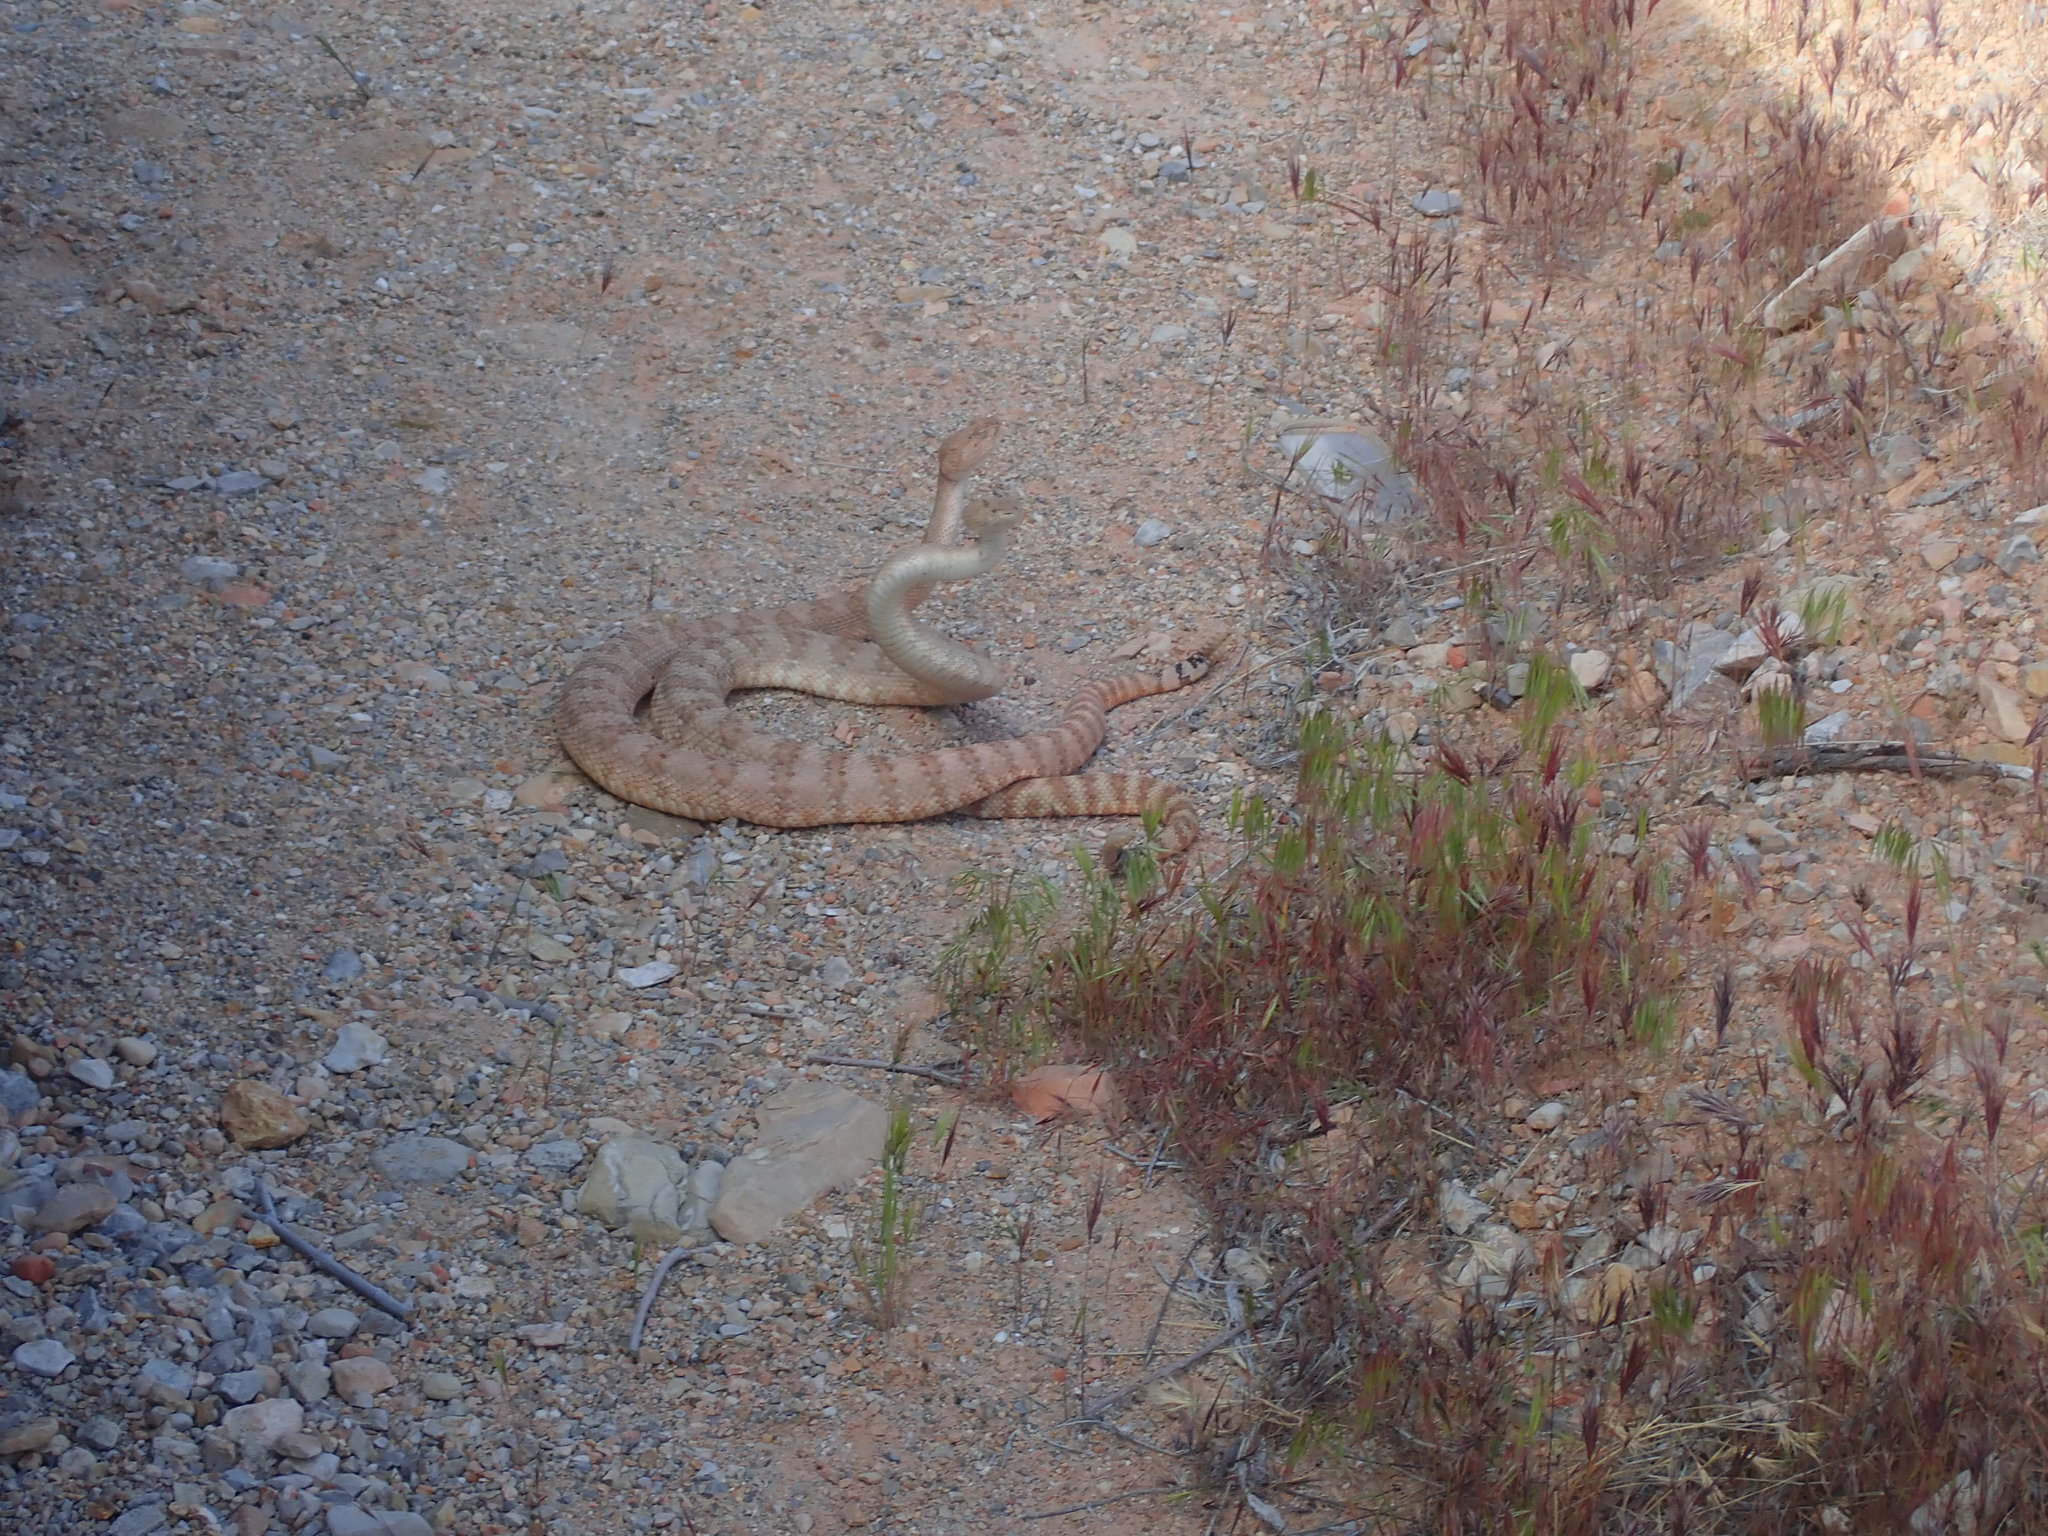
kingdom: Animalia
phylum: Chordata
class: Squamata
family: Viperidae
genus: Crotalus
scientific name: Crotalus pyrrhus
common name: Southwestern speckled rattlesnake
